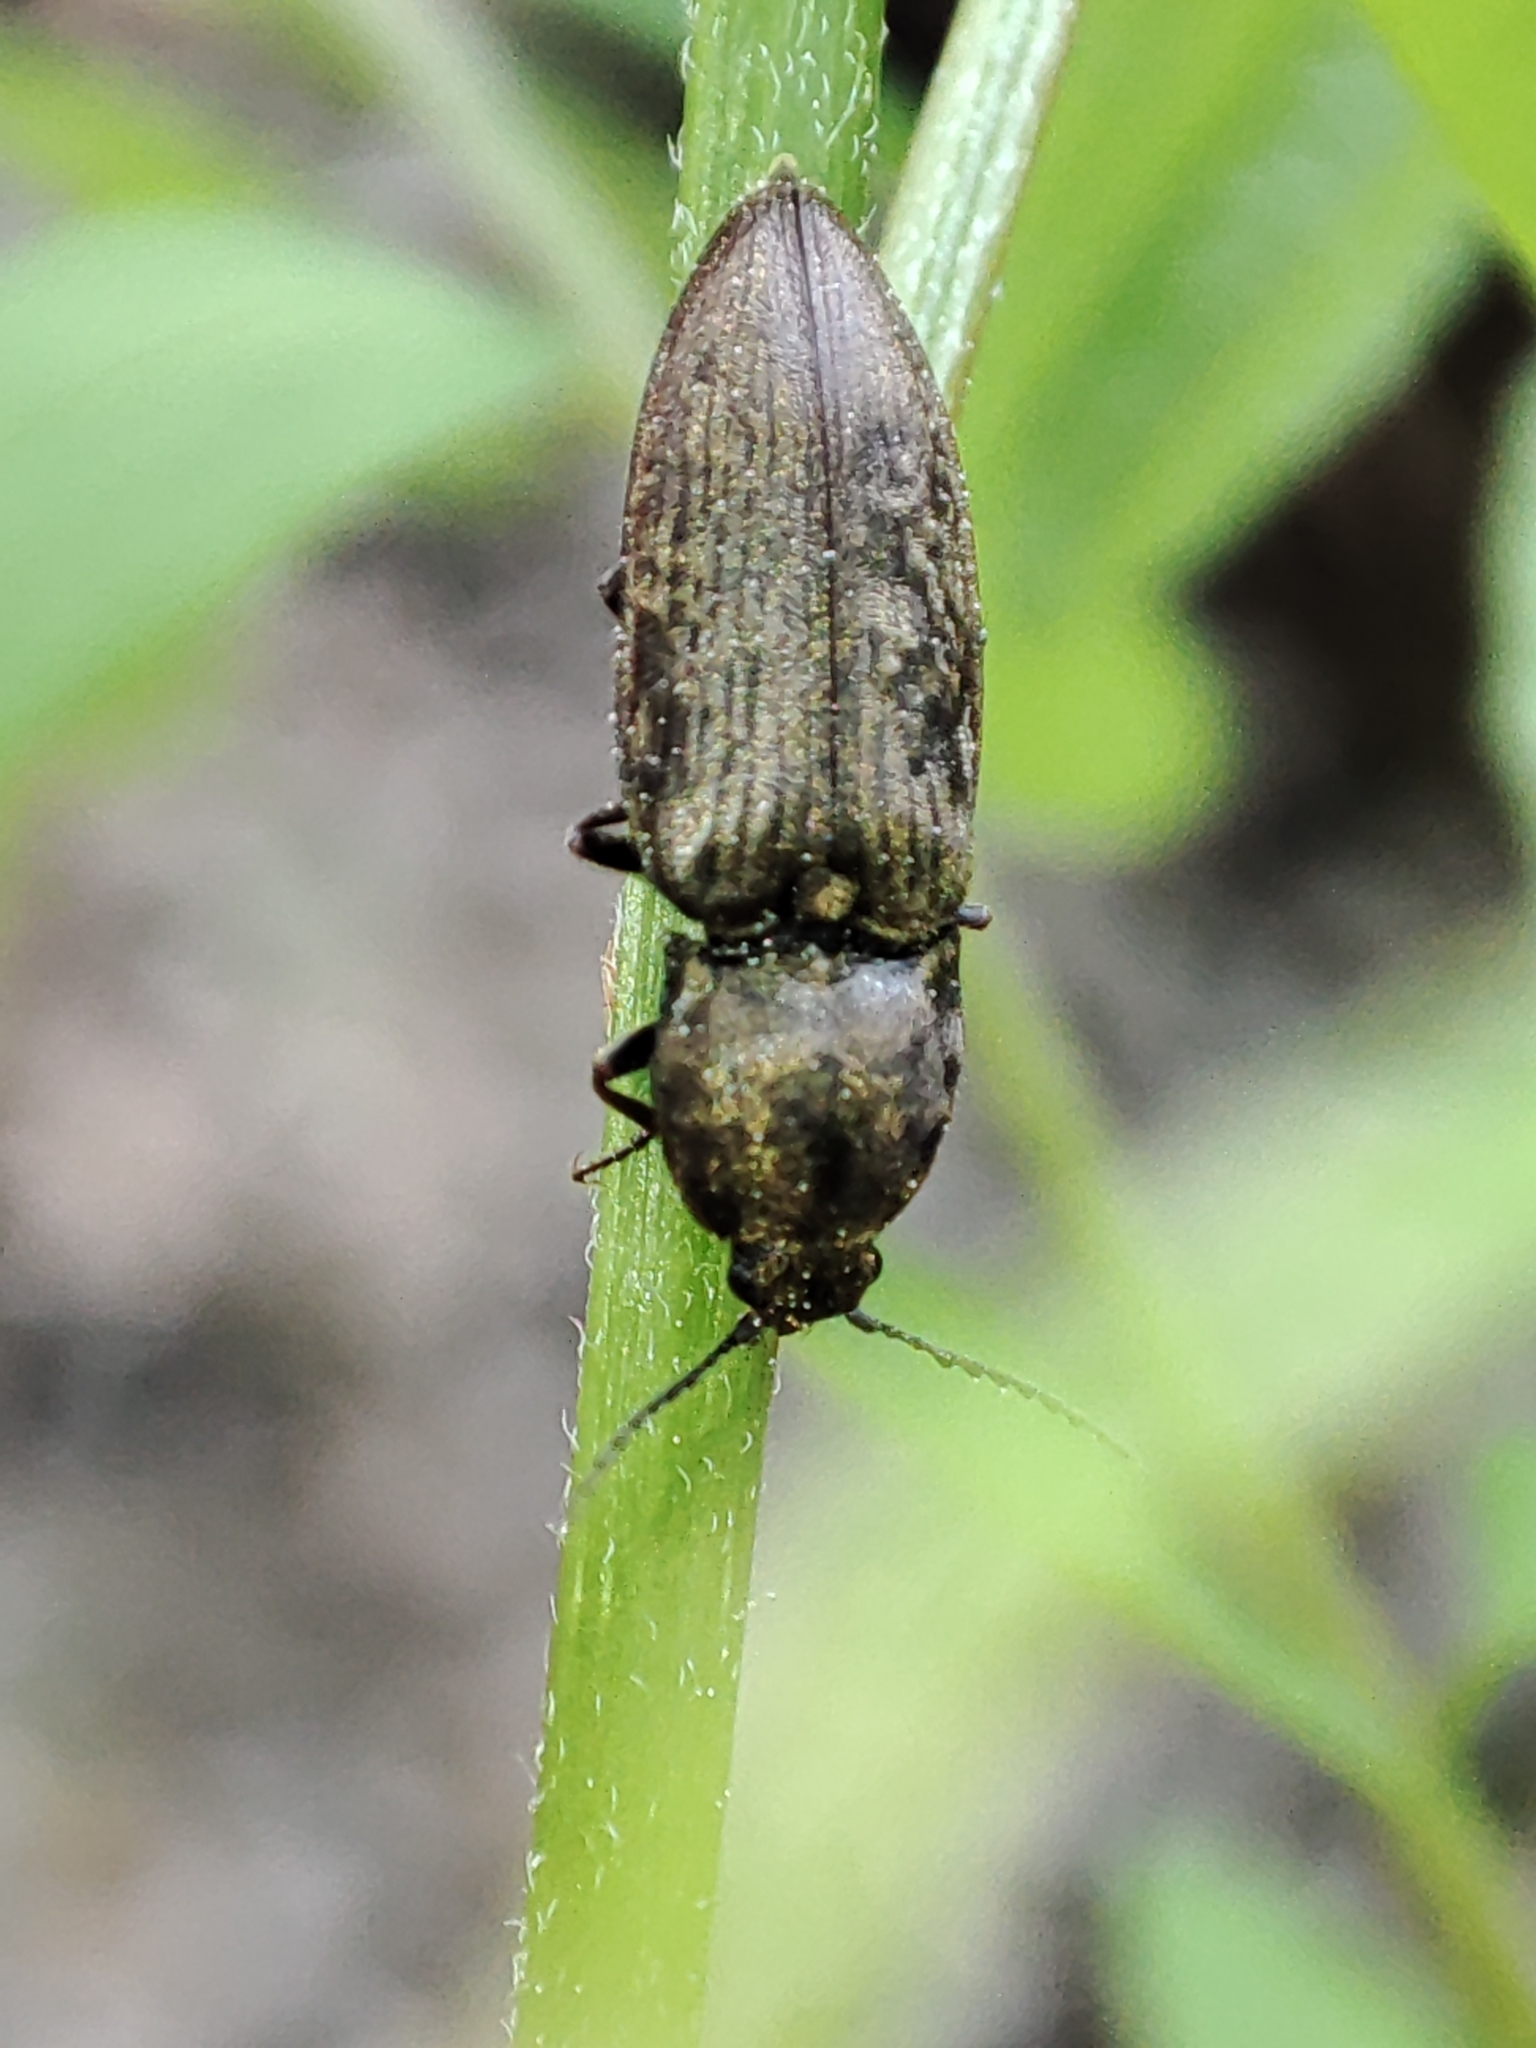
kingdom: Animalia
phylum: Arthropoda
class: Insecta
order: Coleoptera
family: Elateridae
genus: Prosternon
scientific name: Prosternon tessellatum
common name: Chequered click beetle
